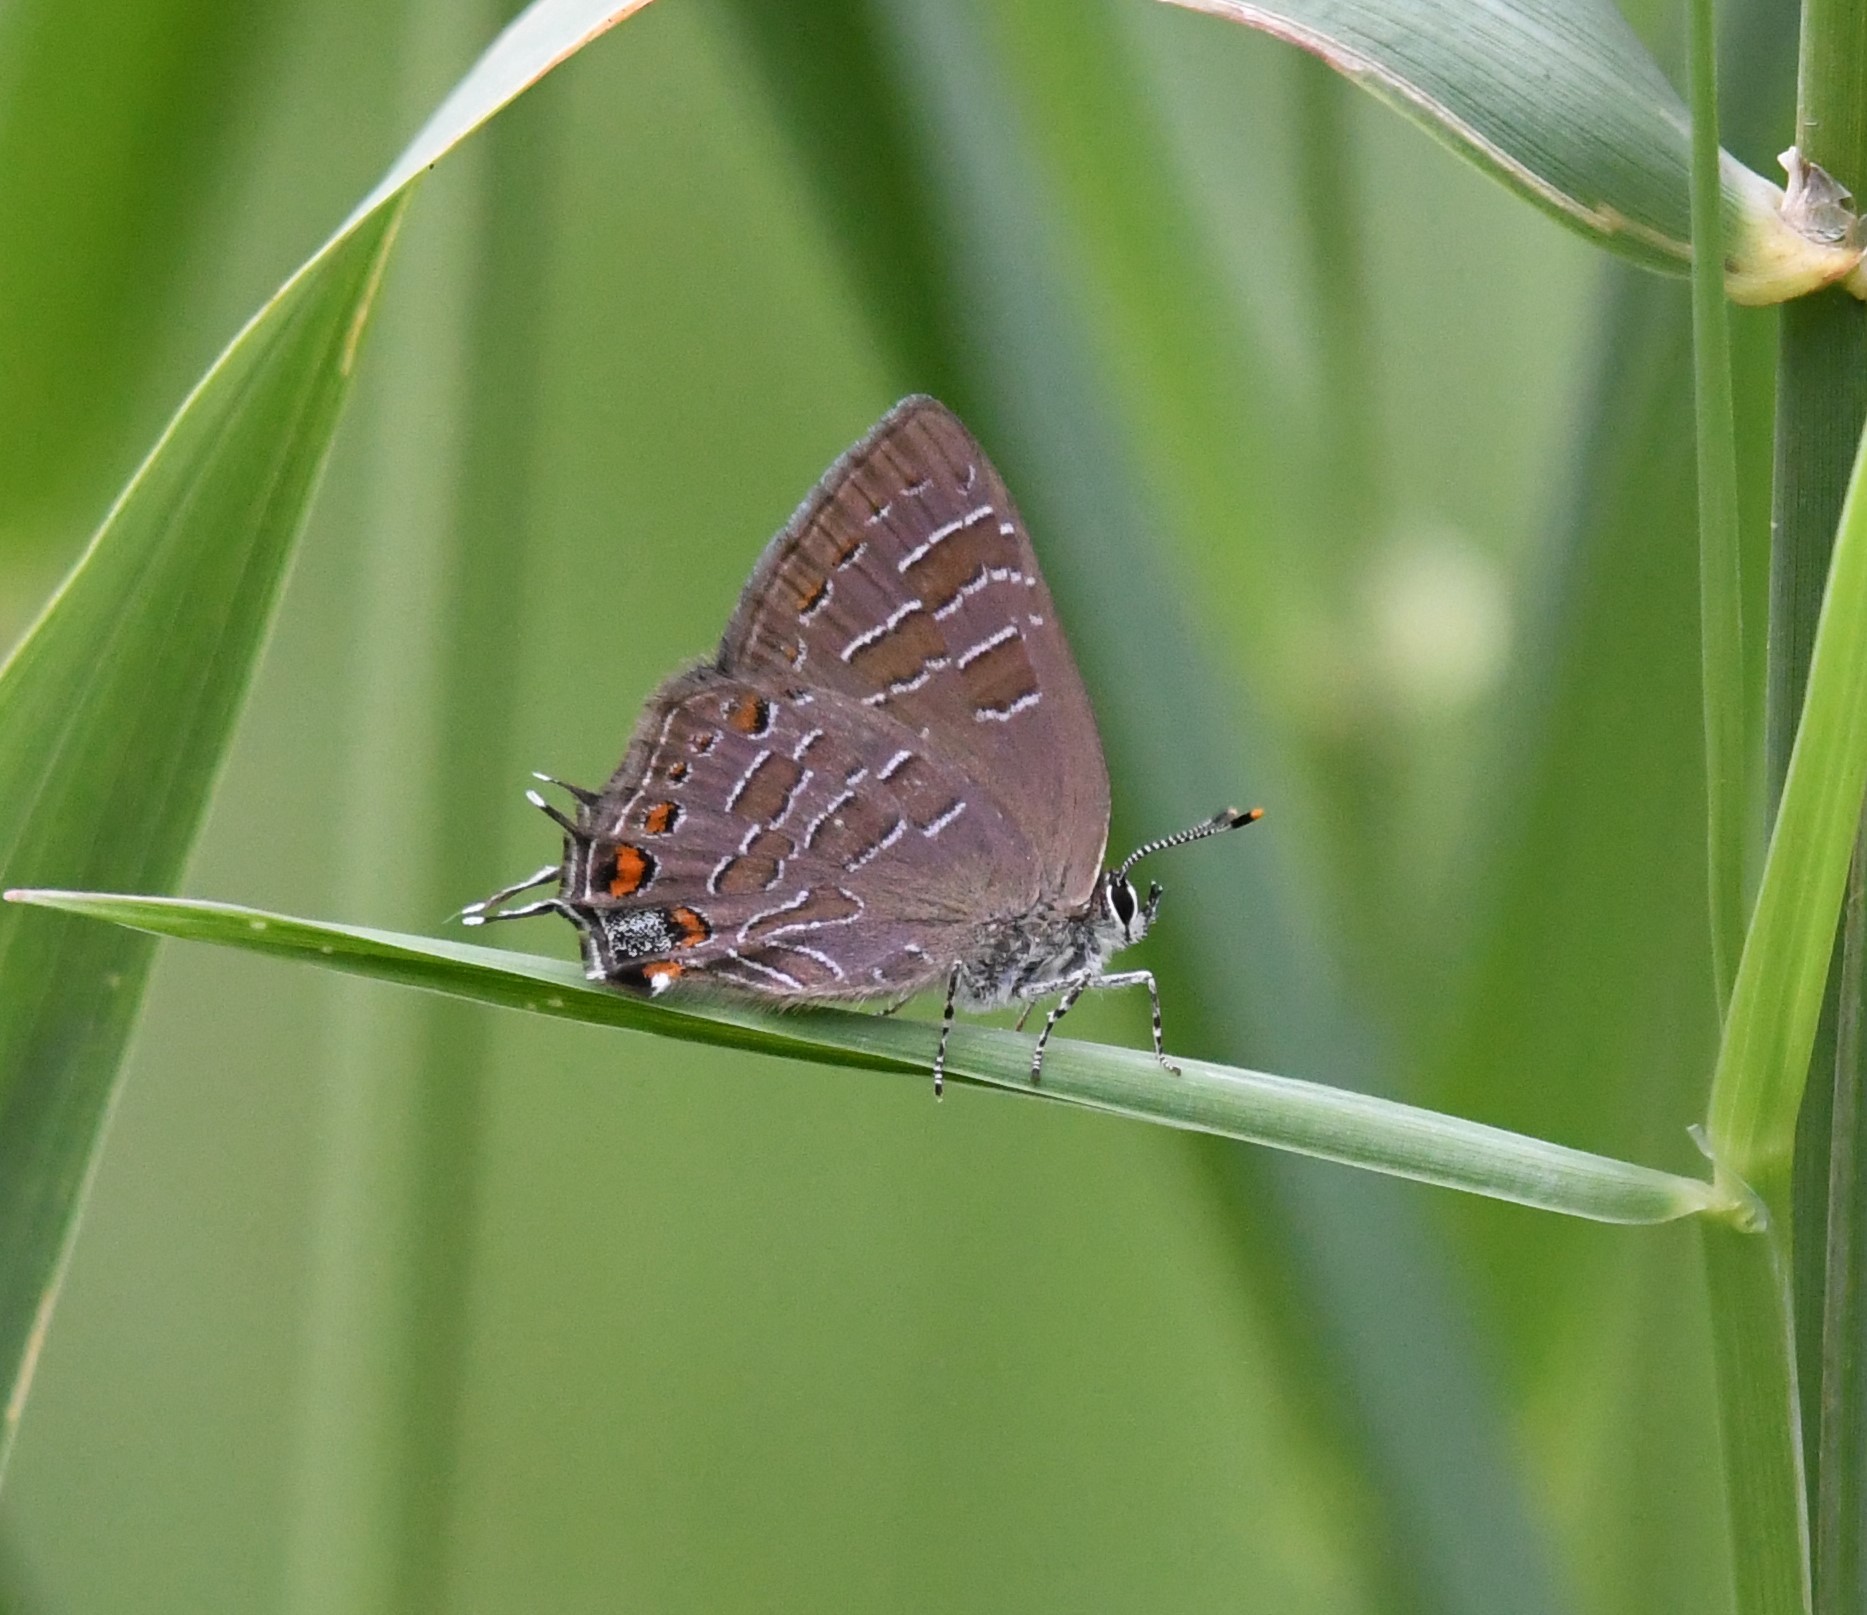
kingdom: Animalia
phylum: Arthropoda
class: Insecta
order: Lepidoptera
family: Lycaenidae
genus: Satyrium
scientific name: Satyrium liparops
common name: Striped hairstreak
